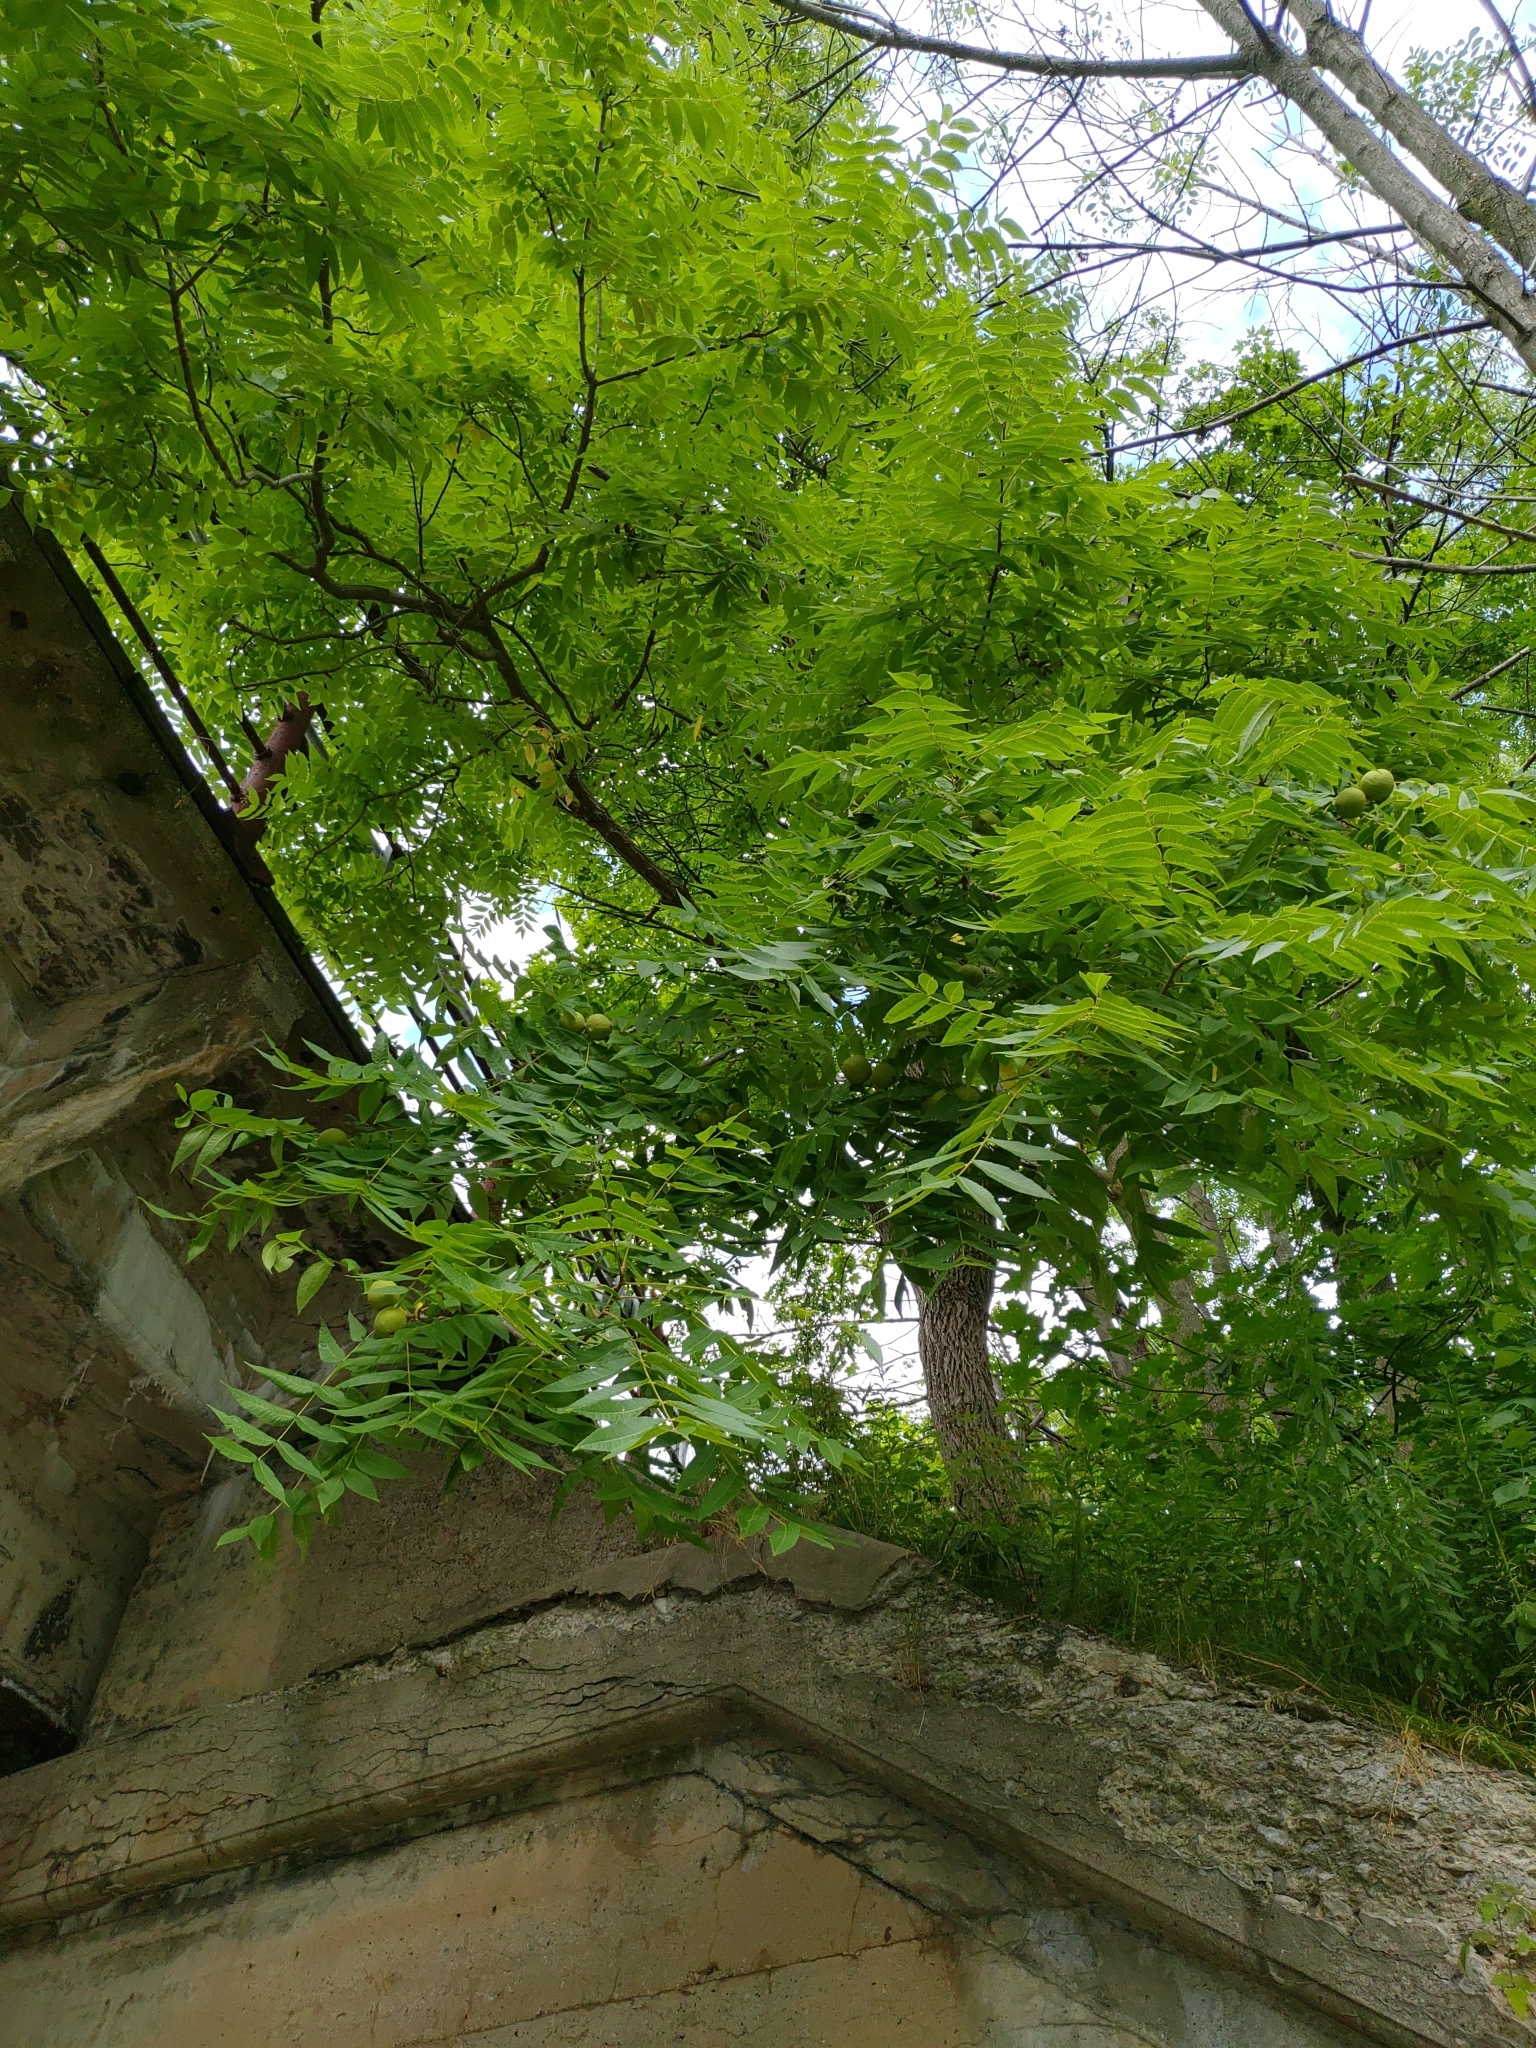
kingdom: Plantae
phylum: Tracheophyta
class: Magnoliopsida
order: Fagales
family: Juglandaceae
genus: Juglans
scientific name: Juglans nigra
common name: Black walnut
